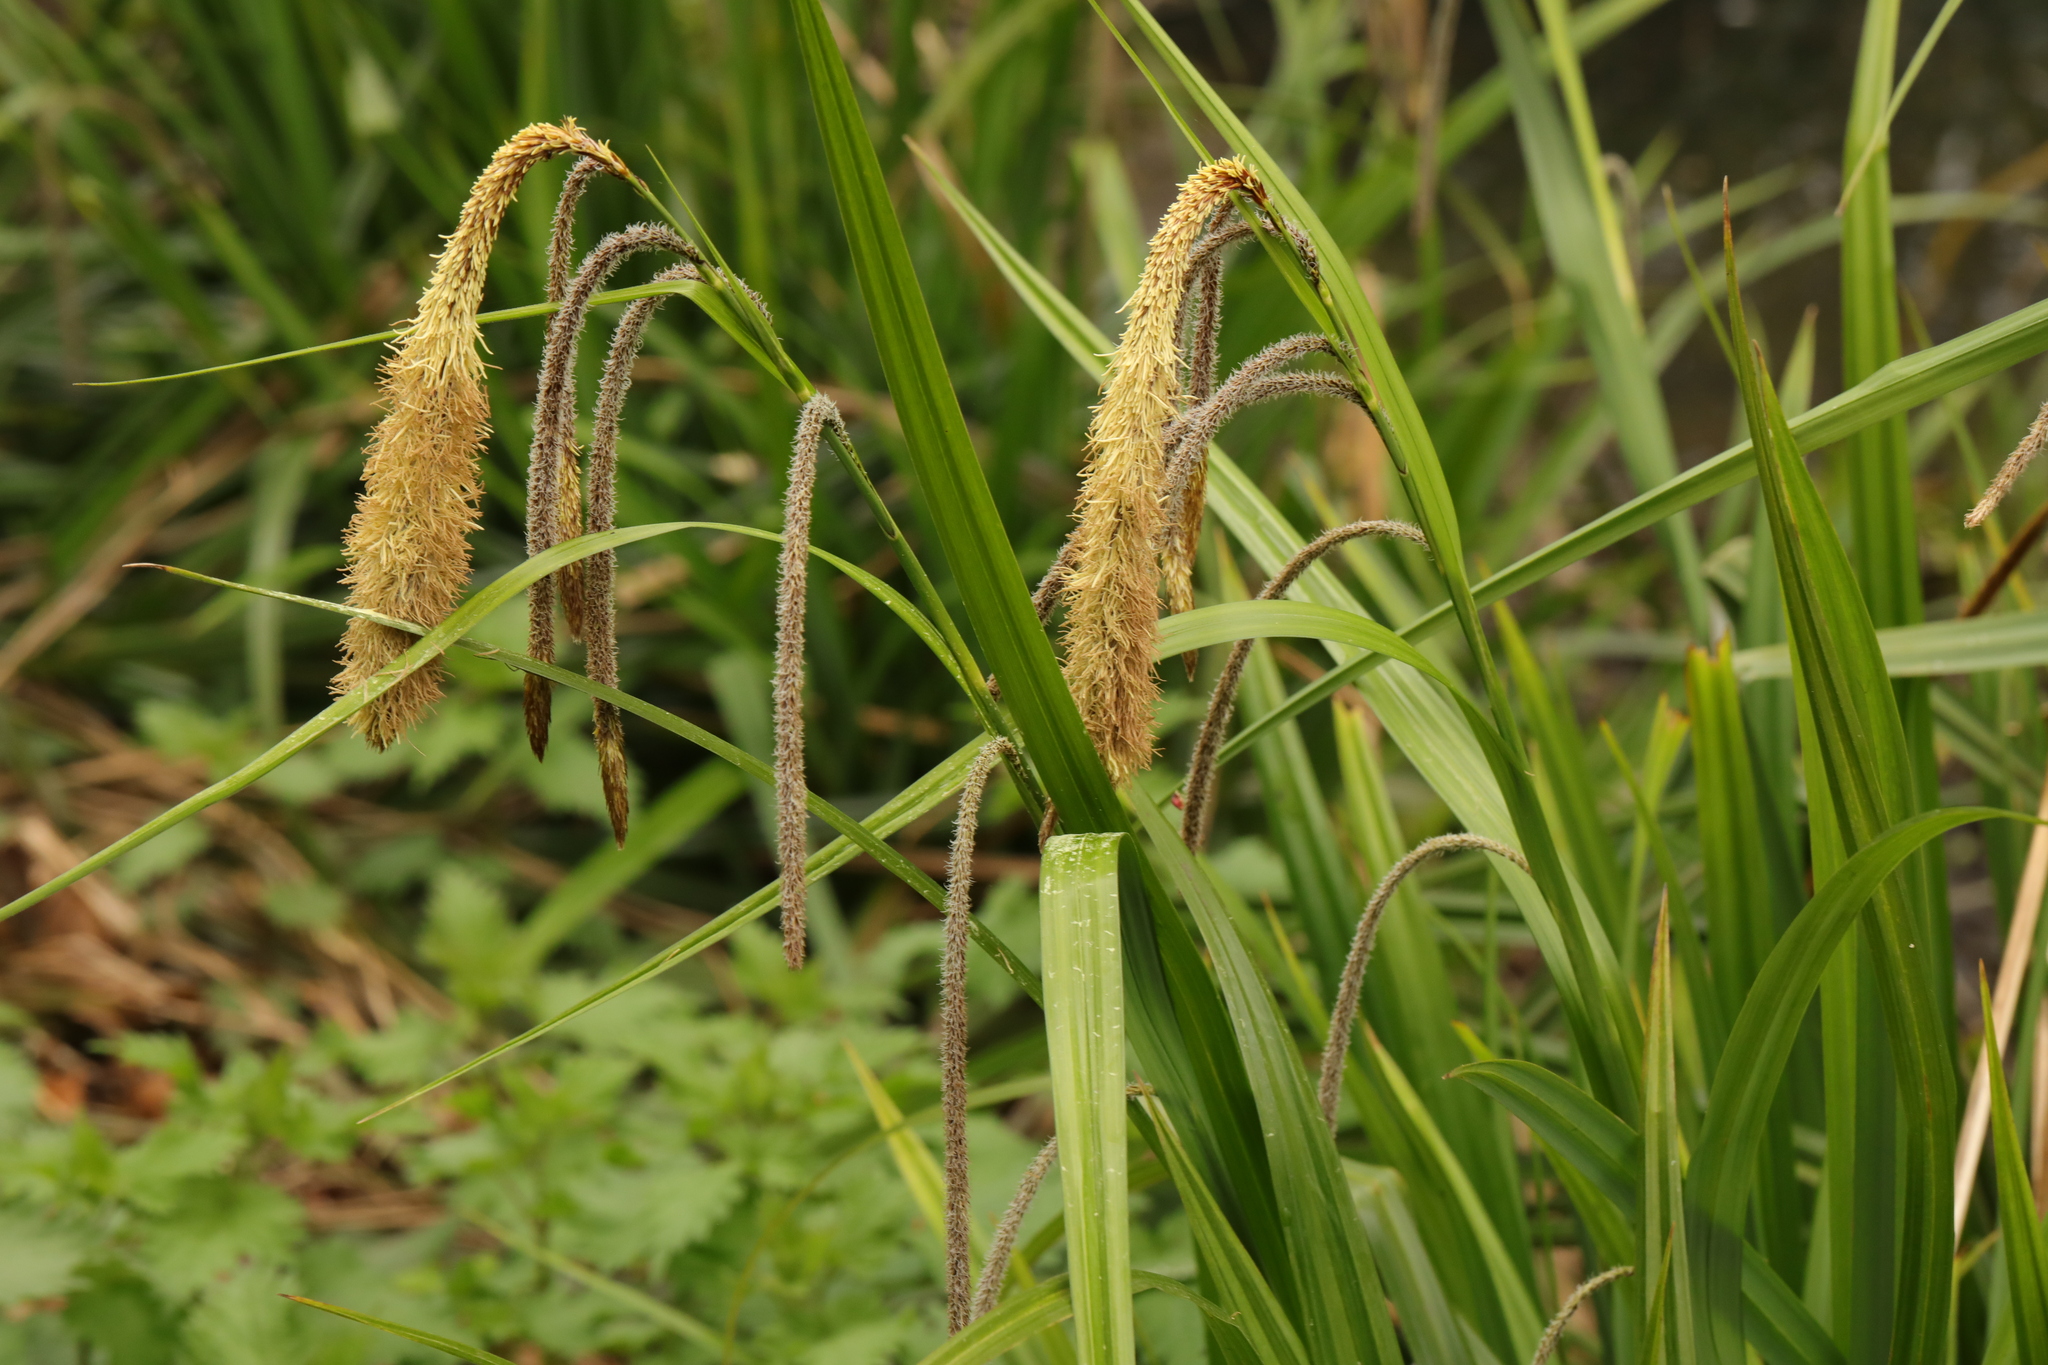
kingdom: Plantae
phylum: Tracheophyta
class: Liliopsida
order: Poales
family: Cyperaceae
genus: Carex
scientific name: Carex pendula
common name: Pendulous sedge
